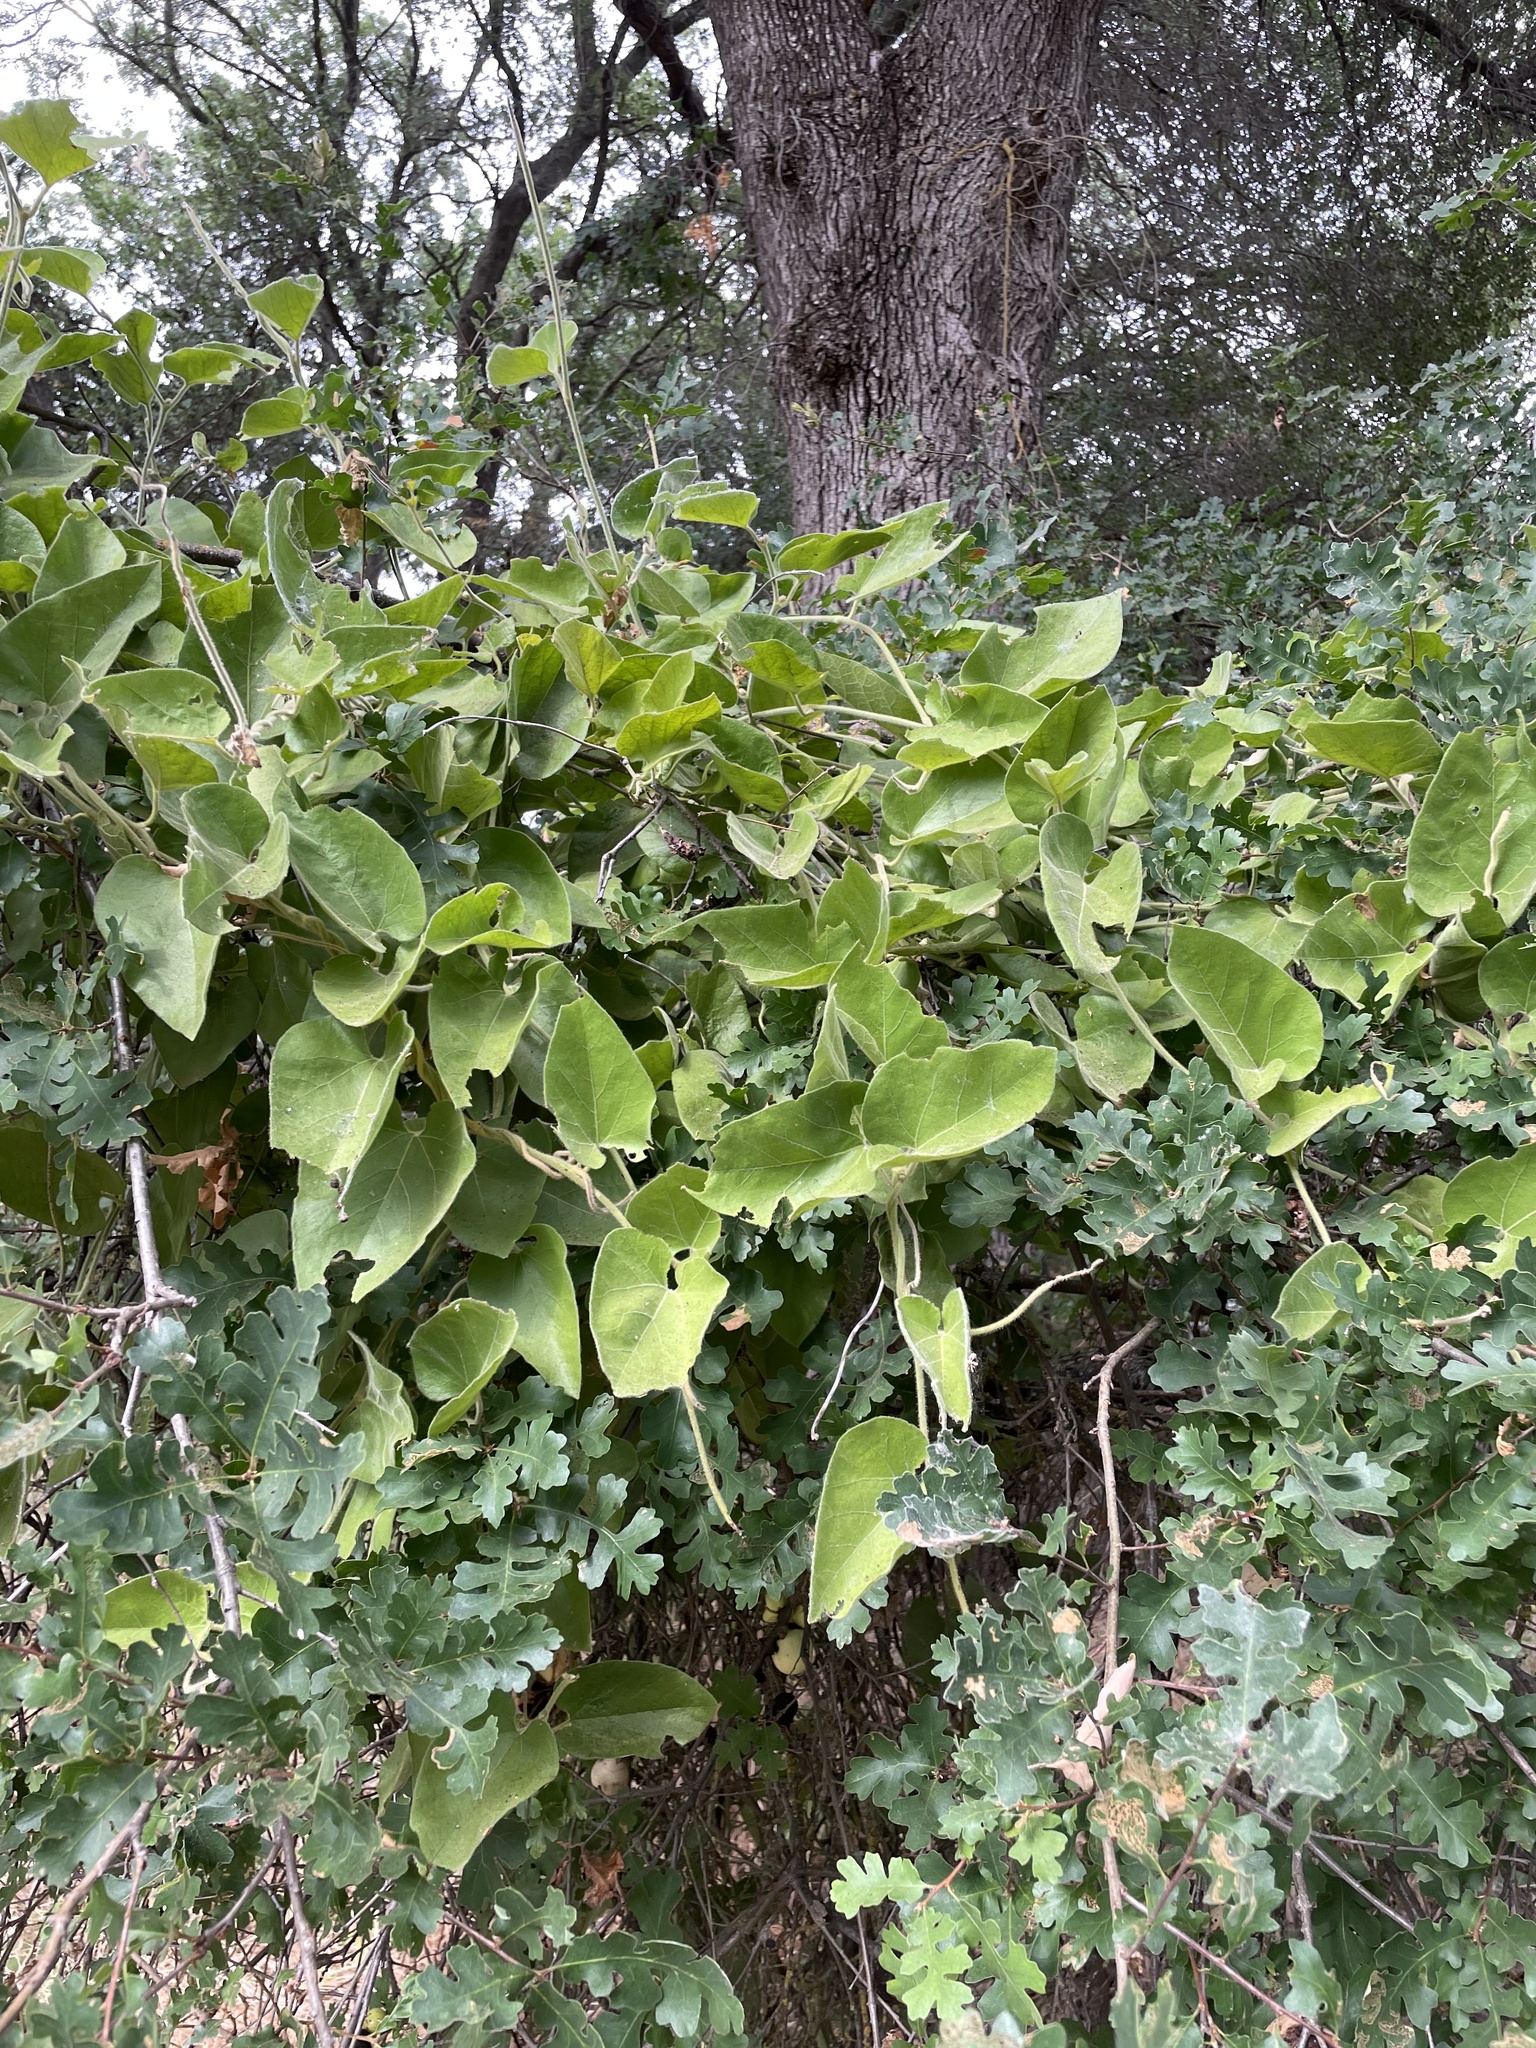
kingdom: Plantae
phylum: Tracheophyta
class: Magnoliopsida
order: Piperales
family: Aristolochiaceae
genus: Isotrema
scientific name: Isotrema californicum
